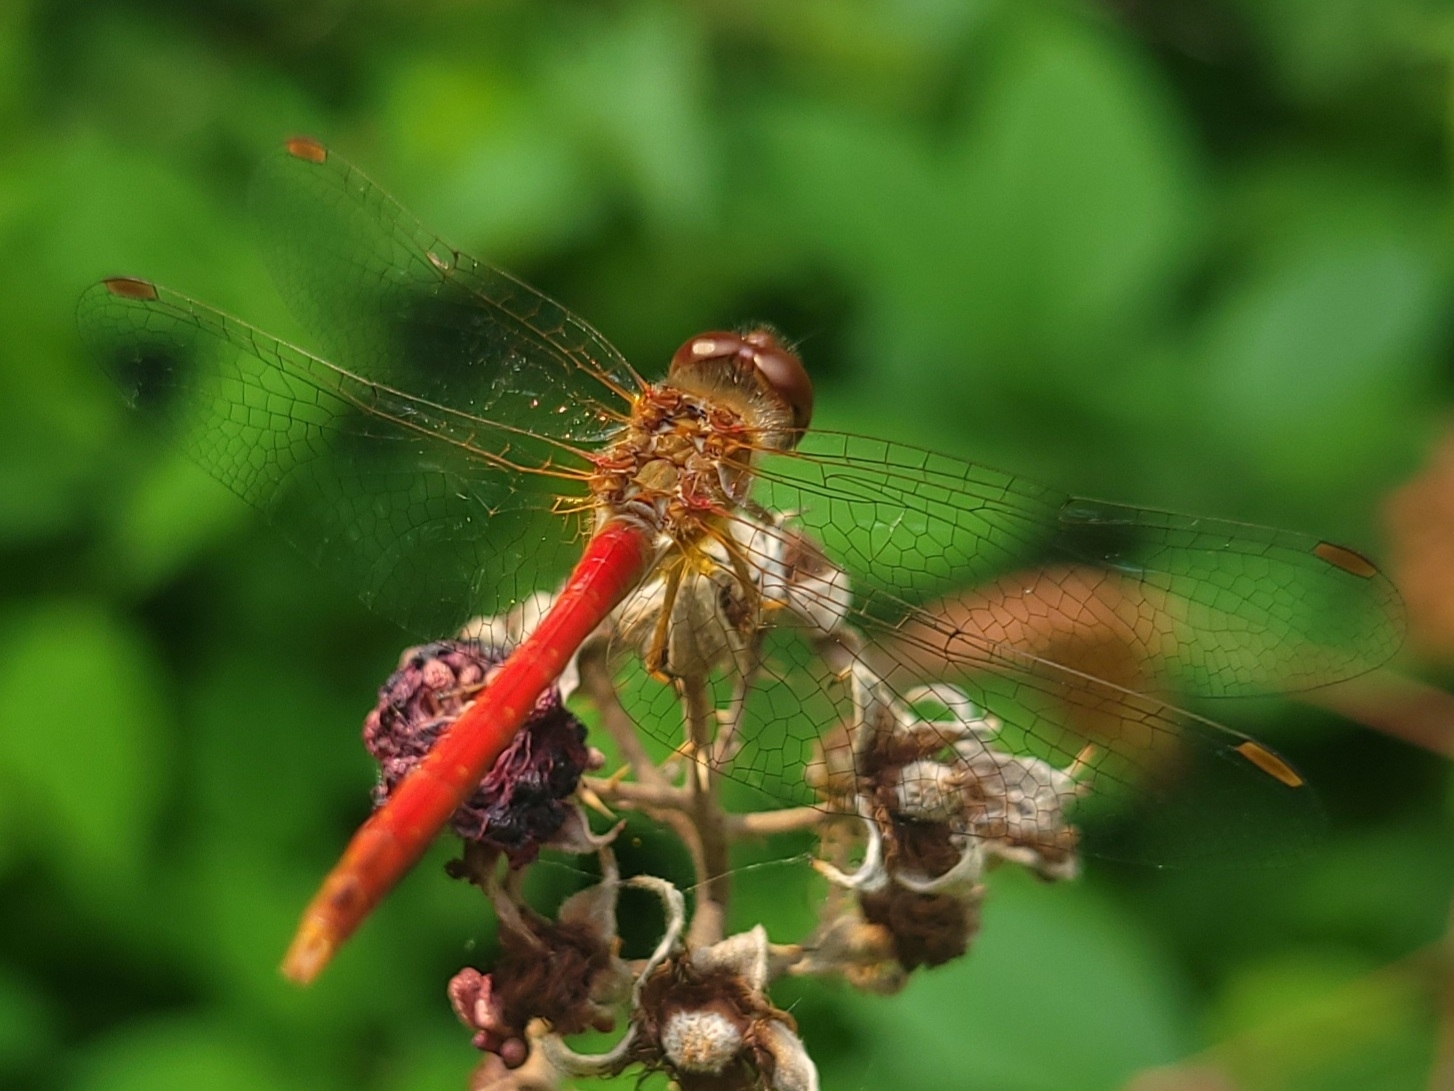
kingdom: Animalia
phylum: Arthropoda
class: Insecta
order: Odonata
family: Libellulidae
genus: Sympetrum
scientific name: Sympetrum vicinum
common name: Autumn meadowhawk
